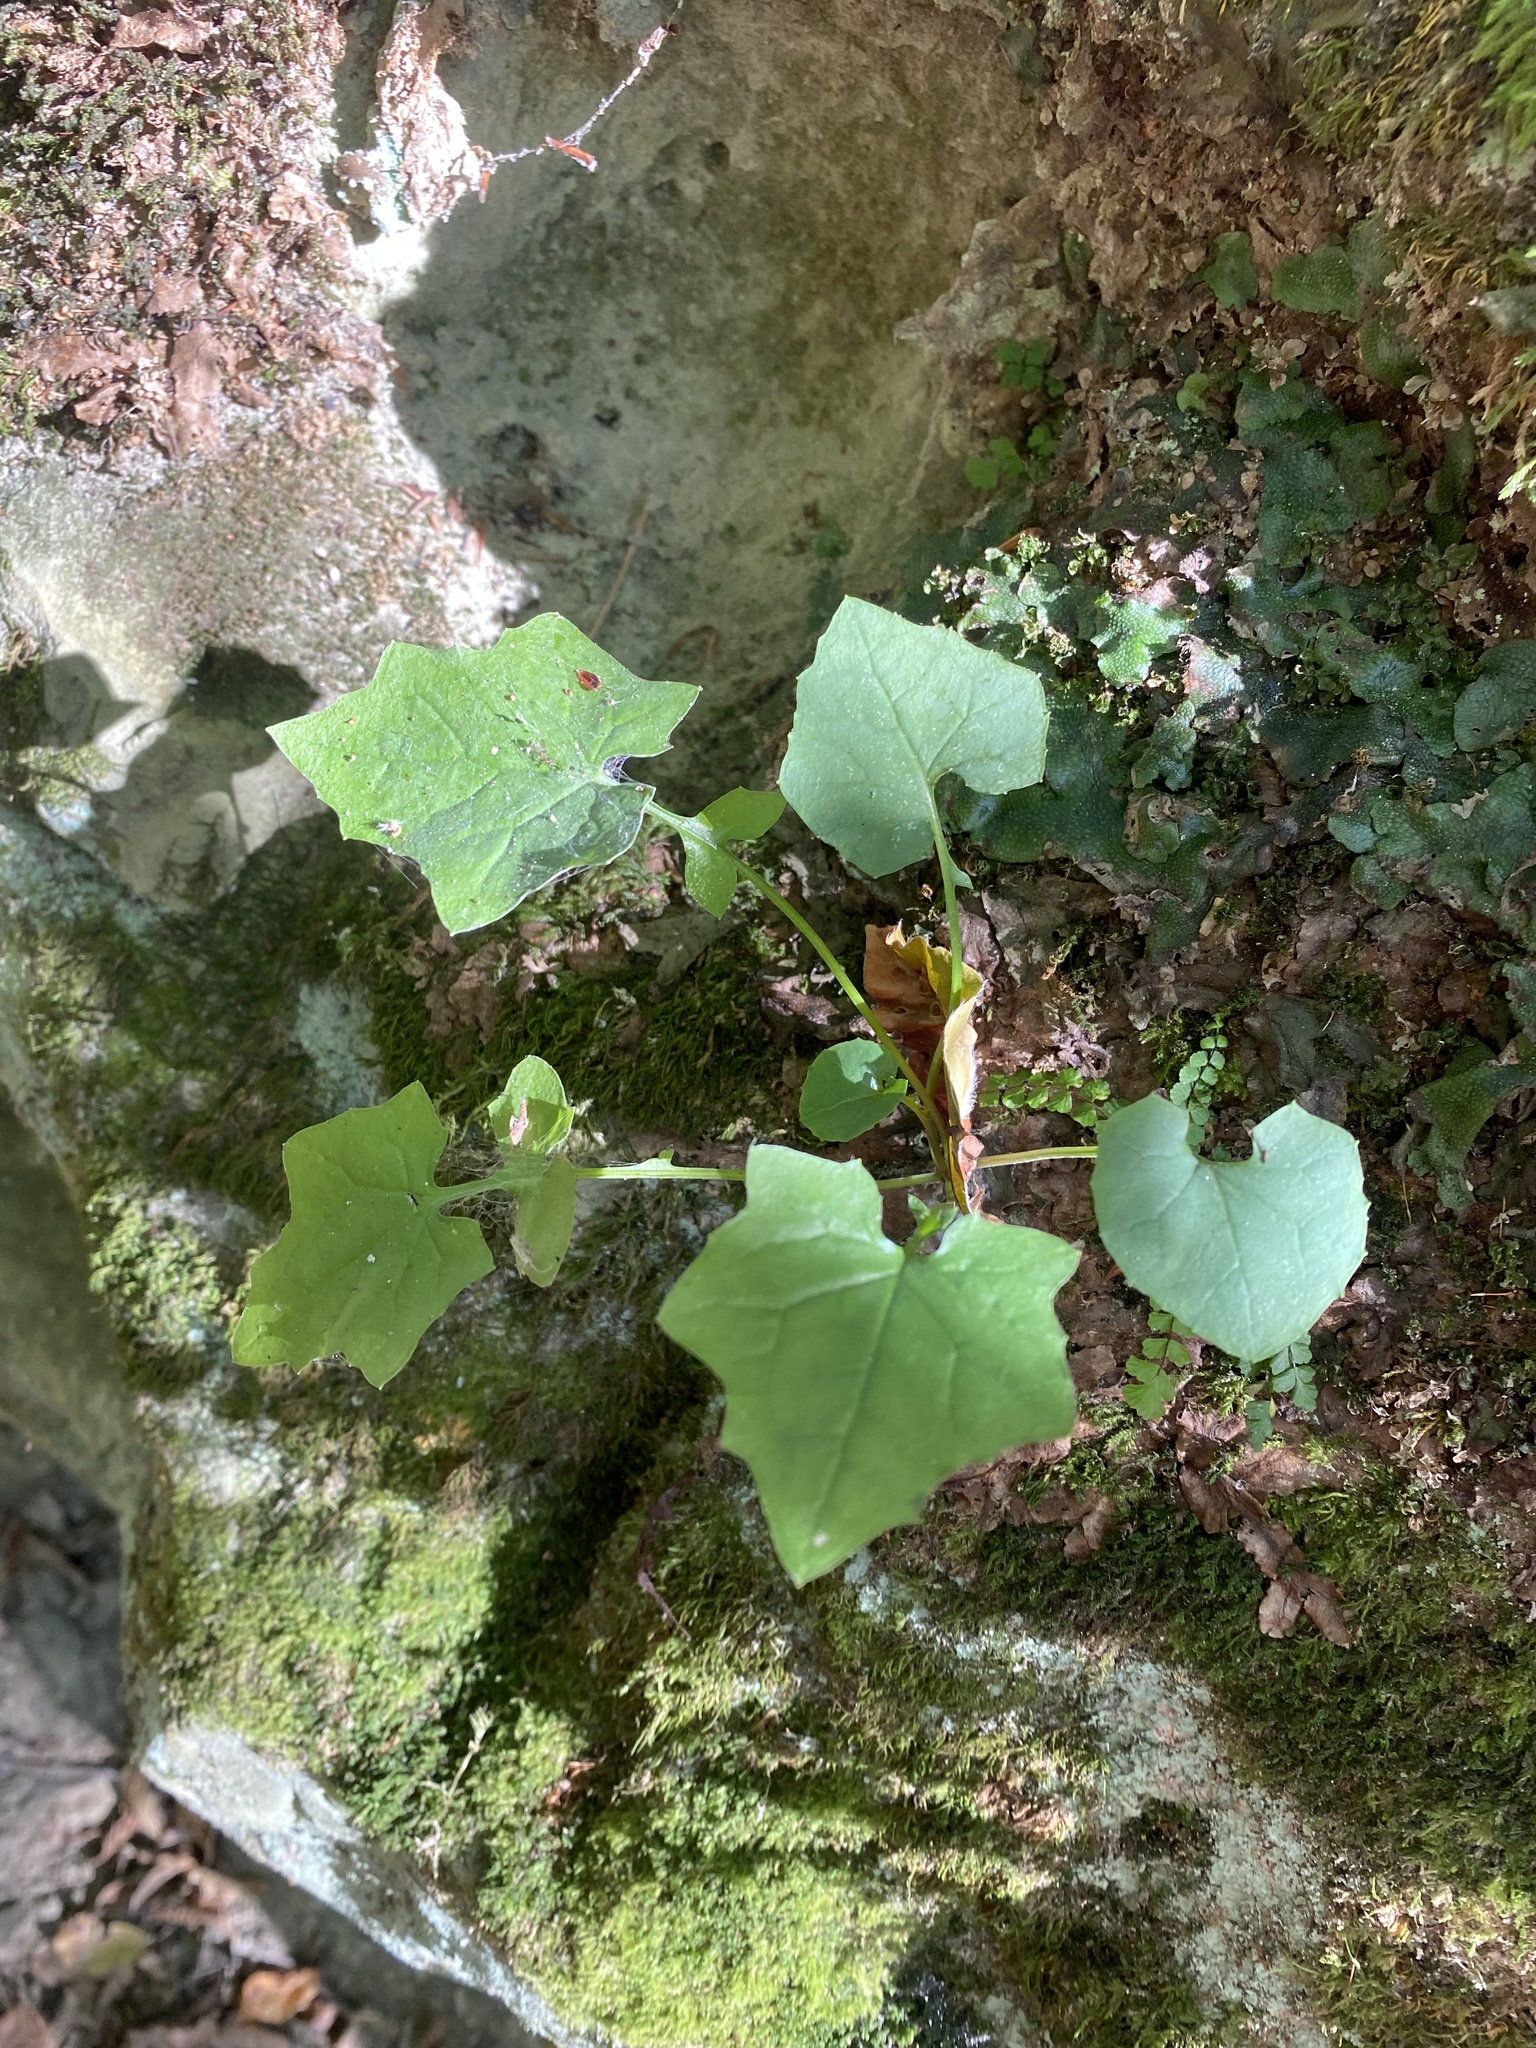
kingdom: Plantae
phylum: Tracheophyta
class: Magnoliopsida
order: Asterales
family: Asteraceae
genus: Mycelis
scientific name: Mycelis muralis
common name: Wall lettuce
